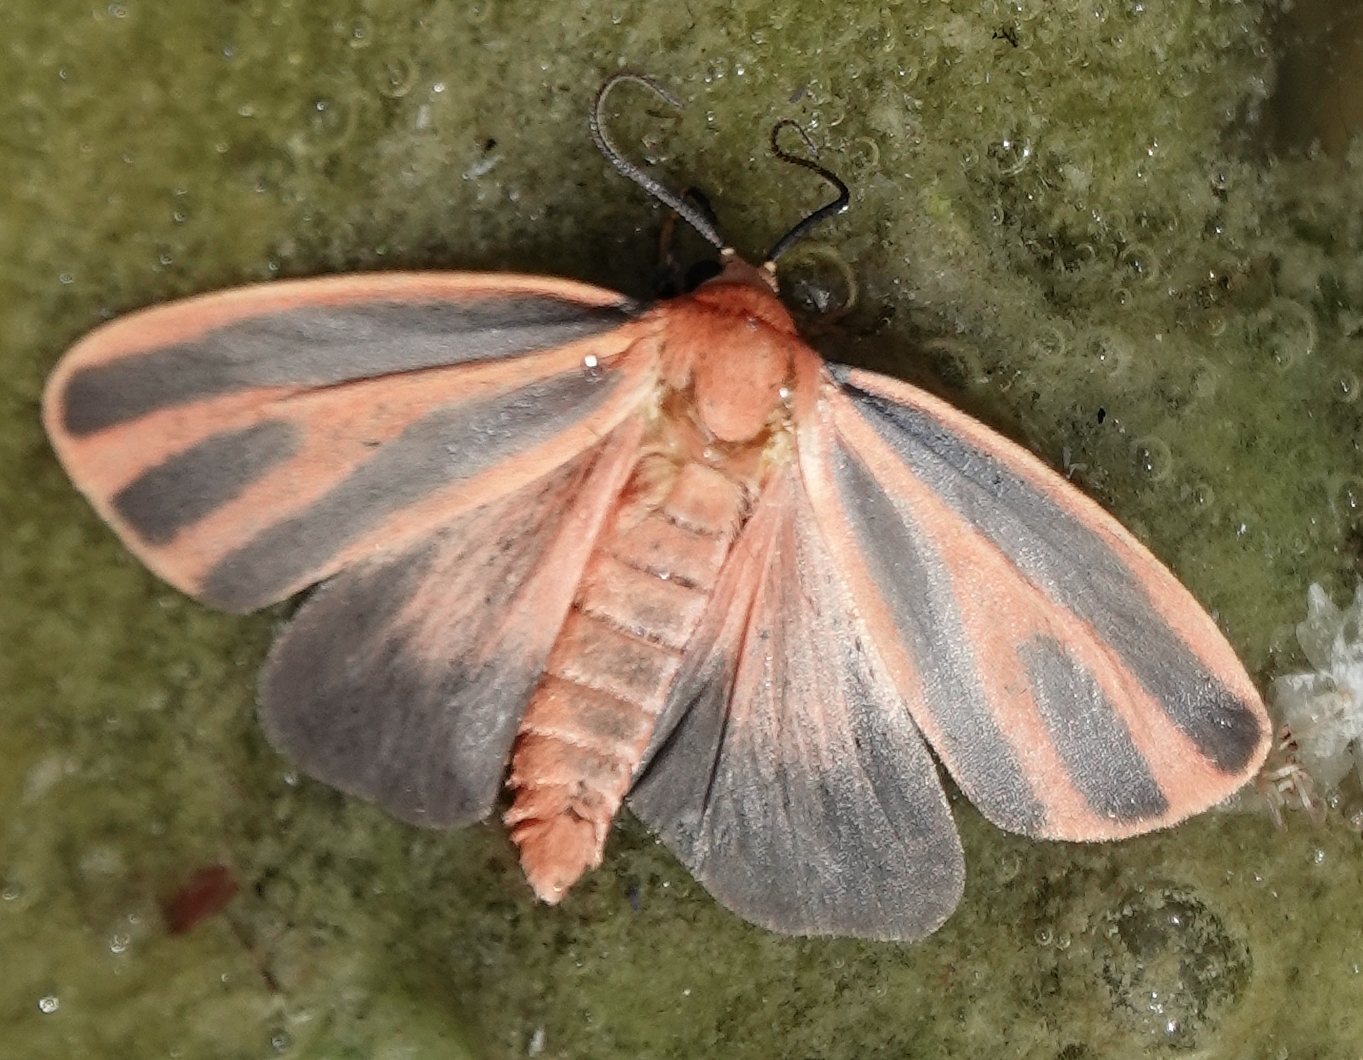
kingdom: Animalia
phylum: Arthropoda
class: Insecta
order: Lepidoptera
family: Erebidae
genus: Hypoprepia
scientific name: Hypoprepia miniata
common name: Scarlet-winged lichen moth
